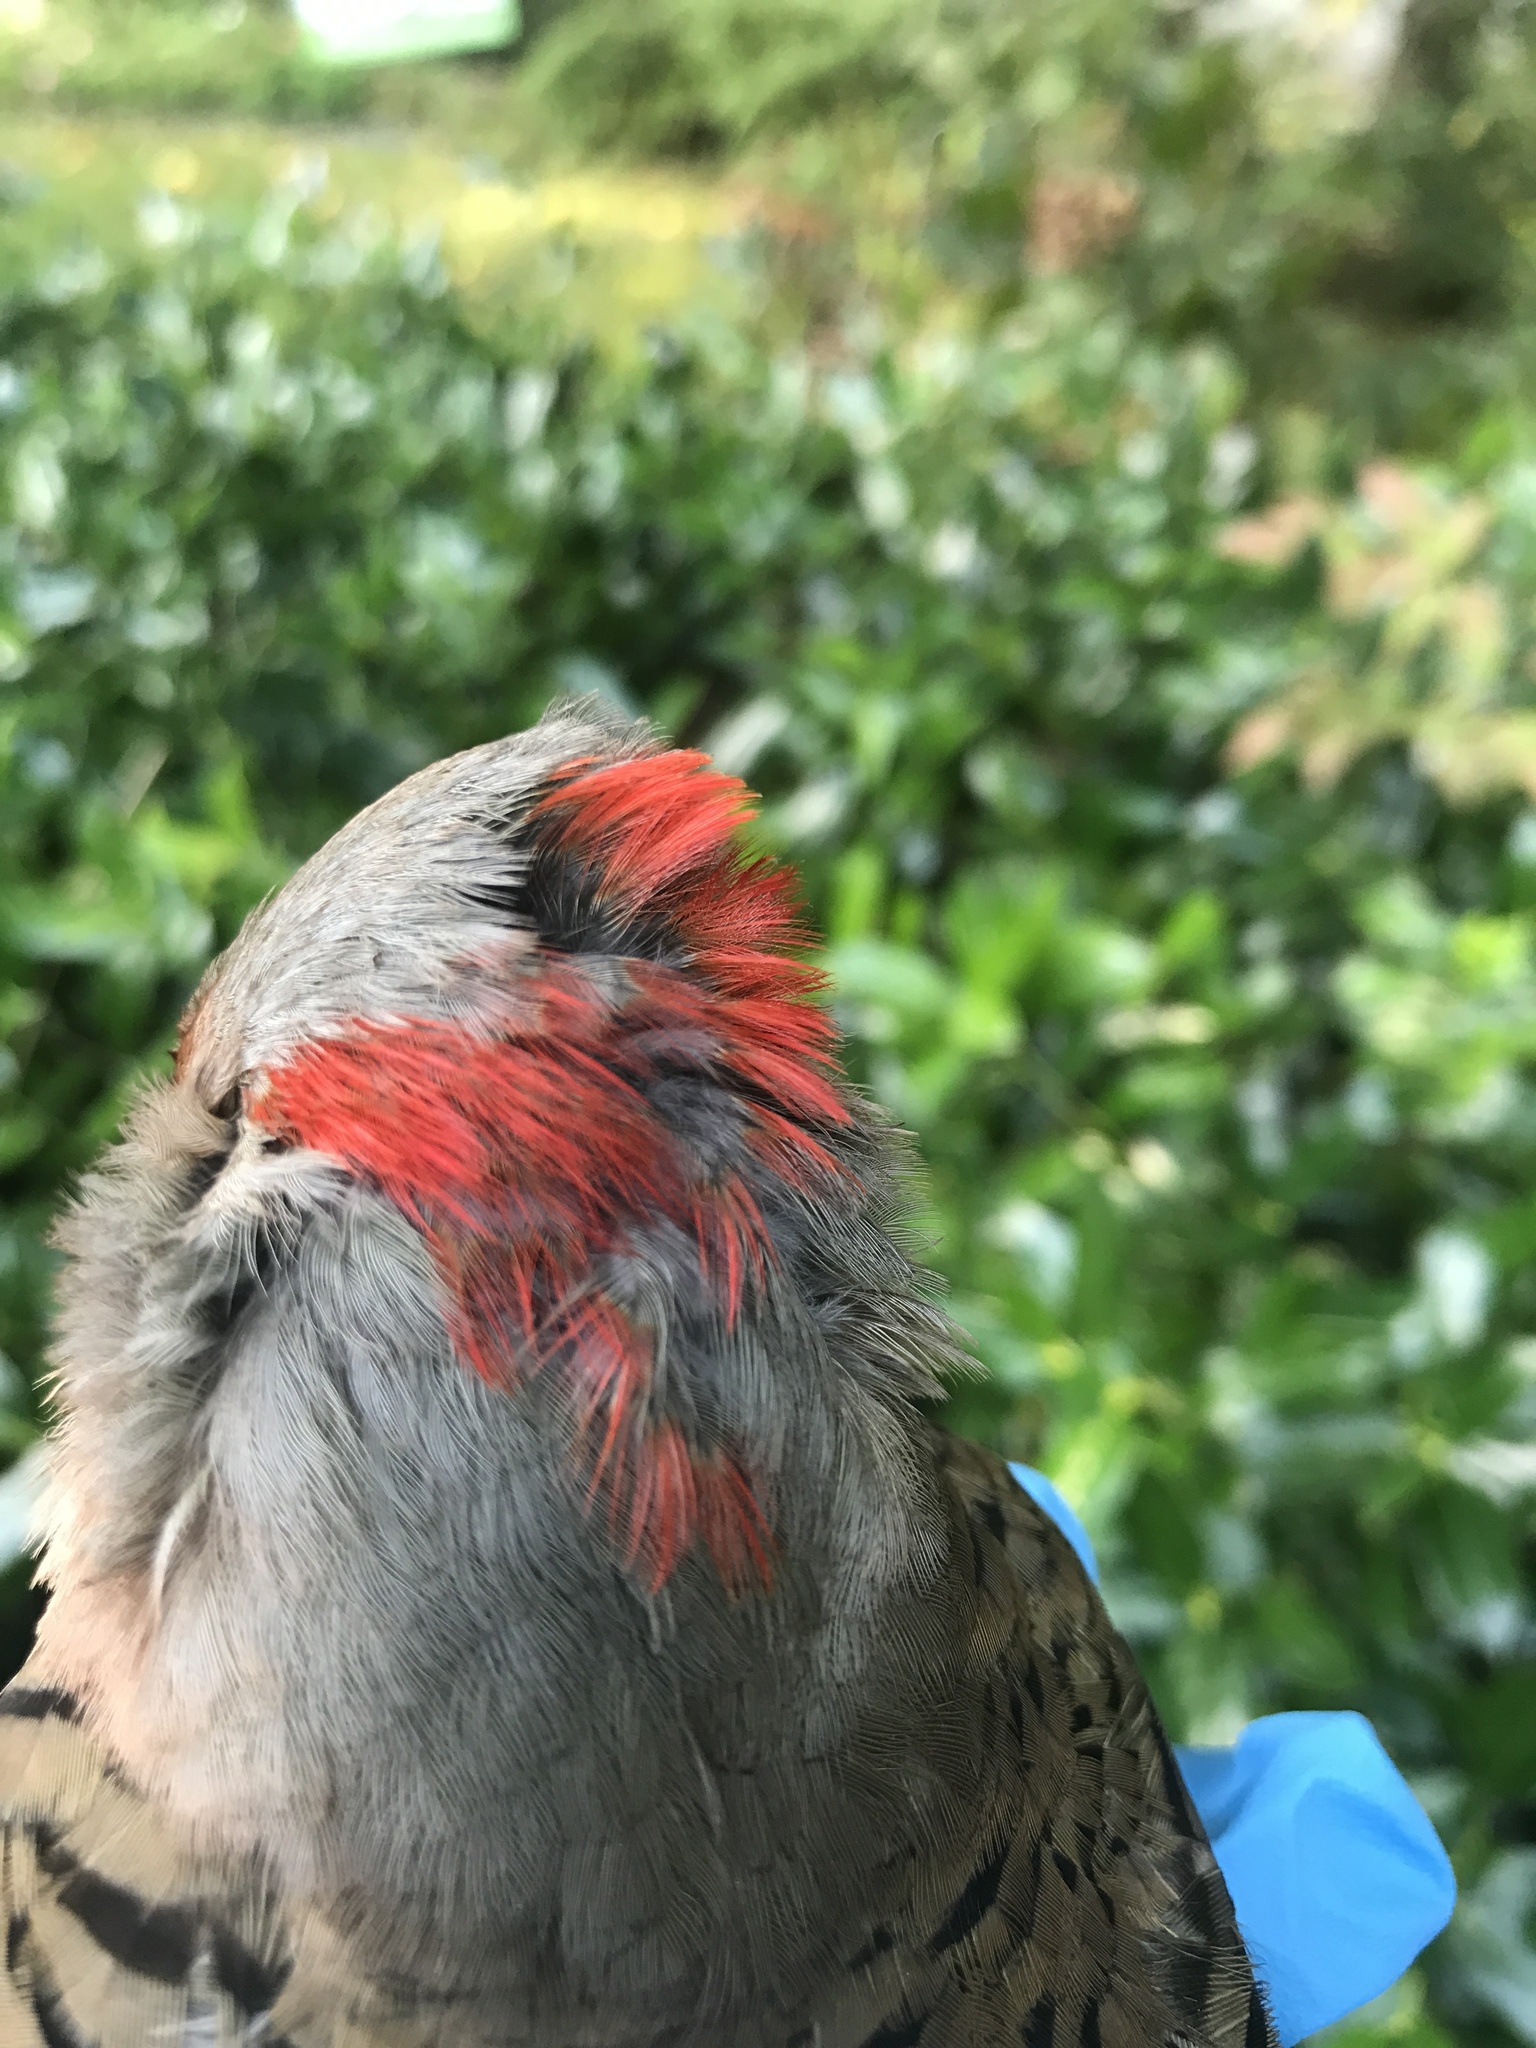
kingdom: Animalia
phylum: Chordata
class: Aves
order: Piciformes
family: Picidae
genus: Colaptes
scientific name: Colaptes auratus
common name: Northern flicker
